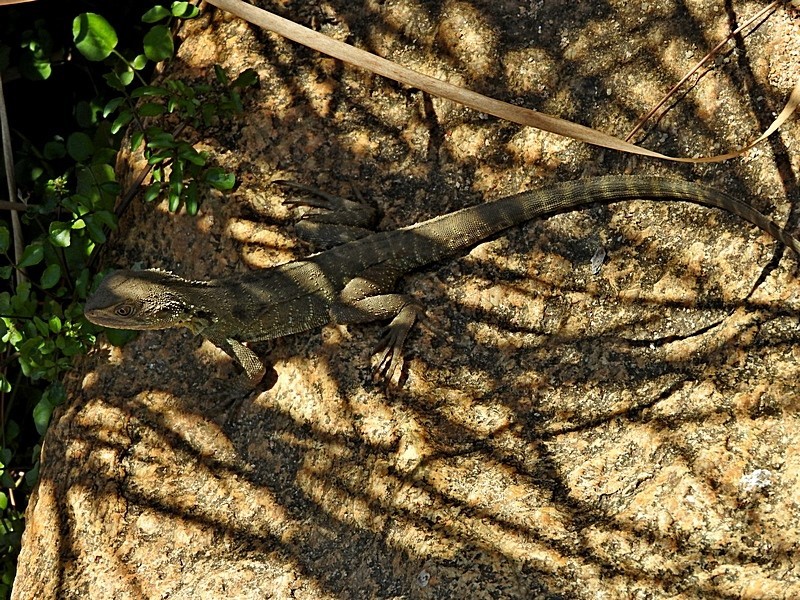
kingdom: Animalia
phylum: Chordata
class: Squamata
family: Agamidae
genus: Intellagama
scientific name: Intellagama lesueurii
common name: Eastern water dragon
